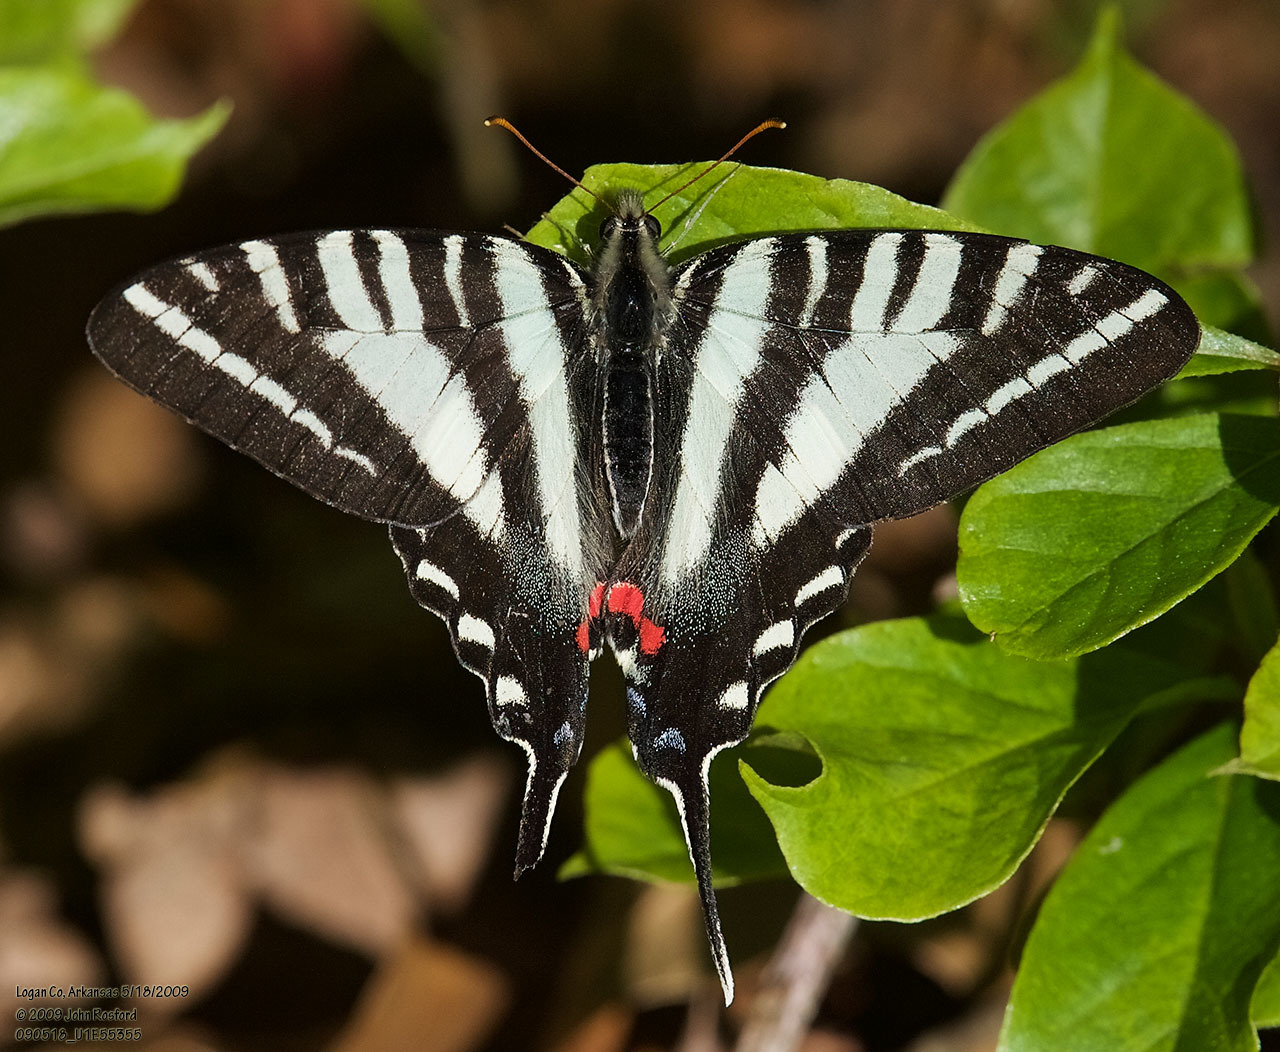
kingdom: Animalia
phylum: Arthropoda
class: Insecta
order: Lepidoptera
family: Papilionidae
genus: Protographium
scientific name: Protographium marcellus
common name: Zebra swallowtail
